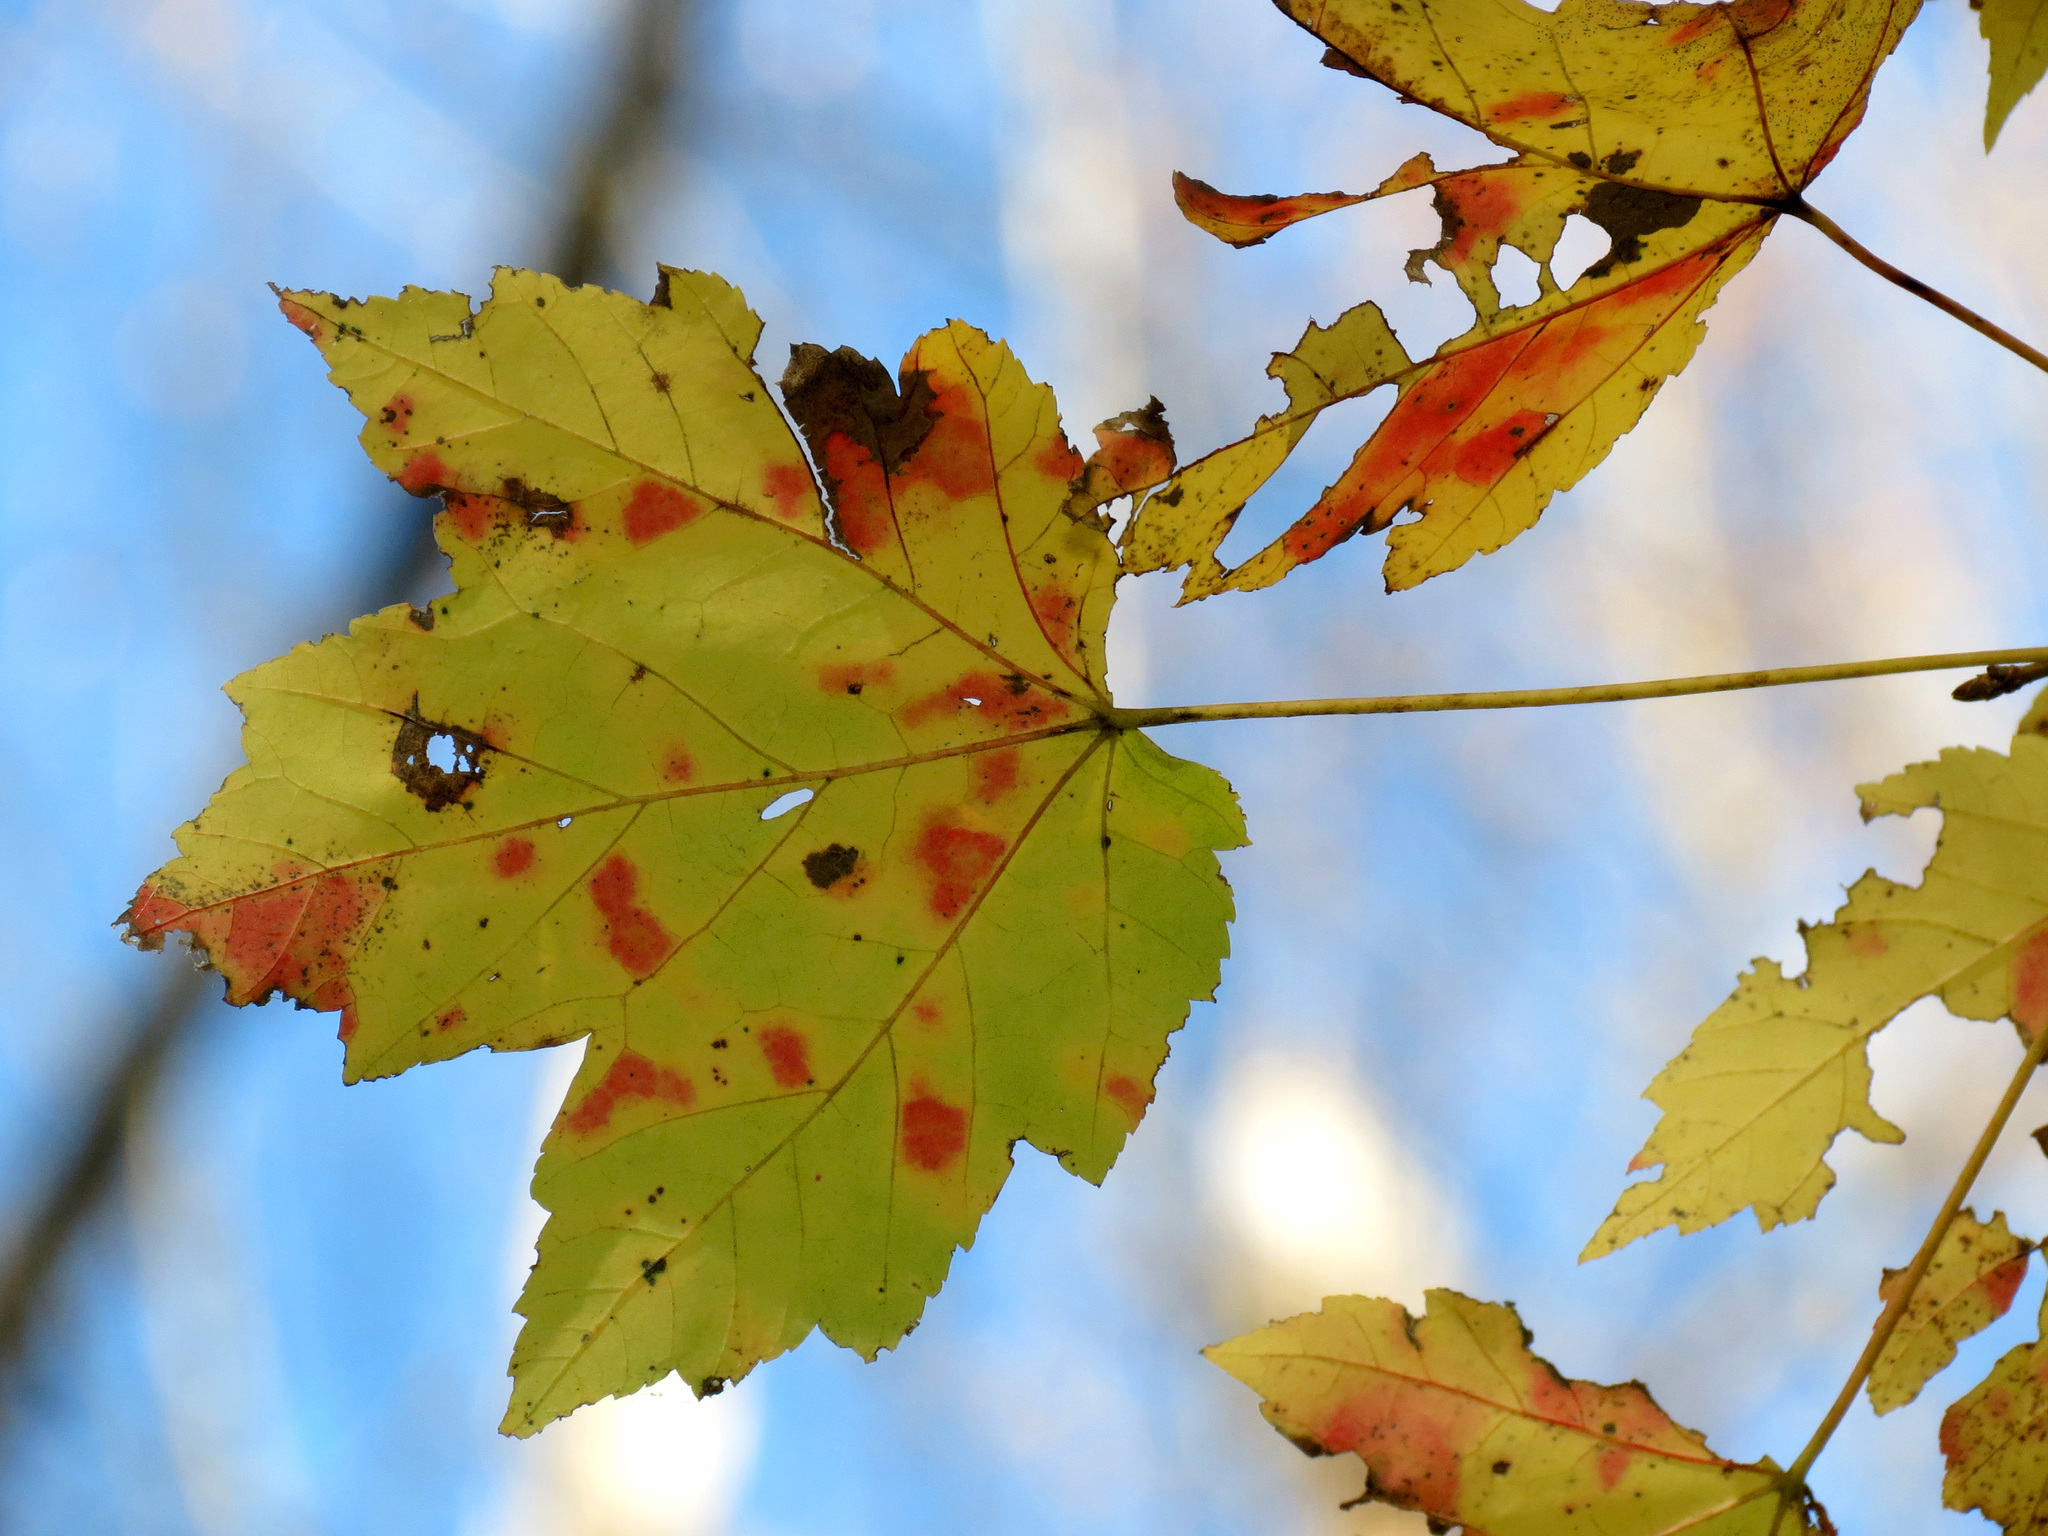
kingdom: Plantae
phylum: Tracheophyta
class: Magnoliopsida
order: Sapindales
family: Sapindaceae
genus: Acer
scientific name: Acer rubrum
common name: Red maple
